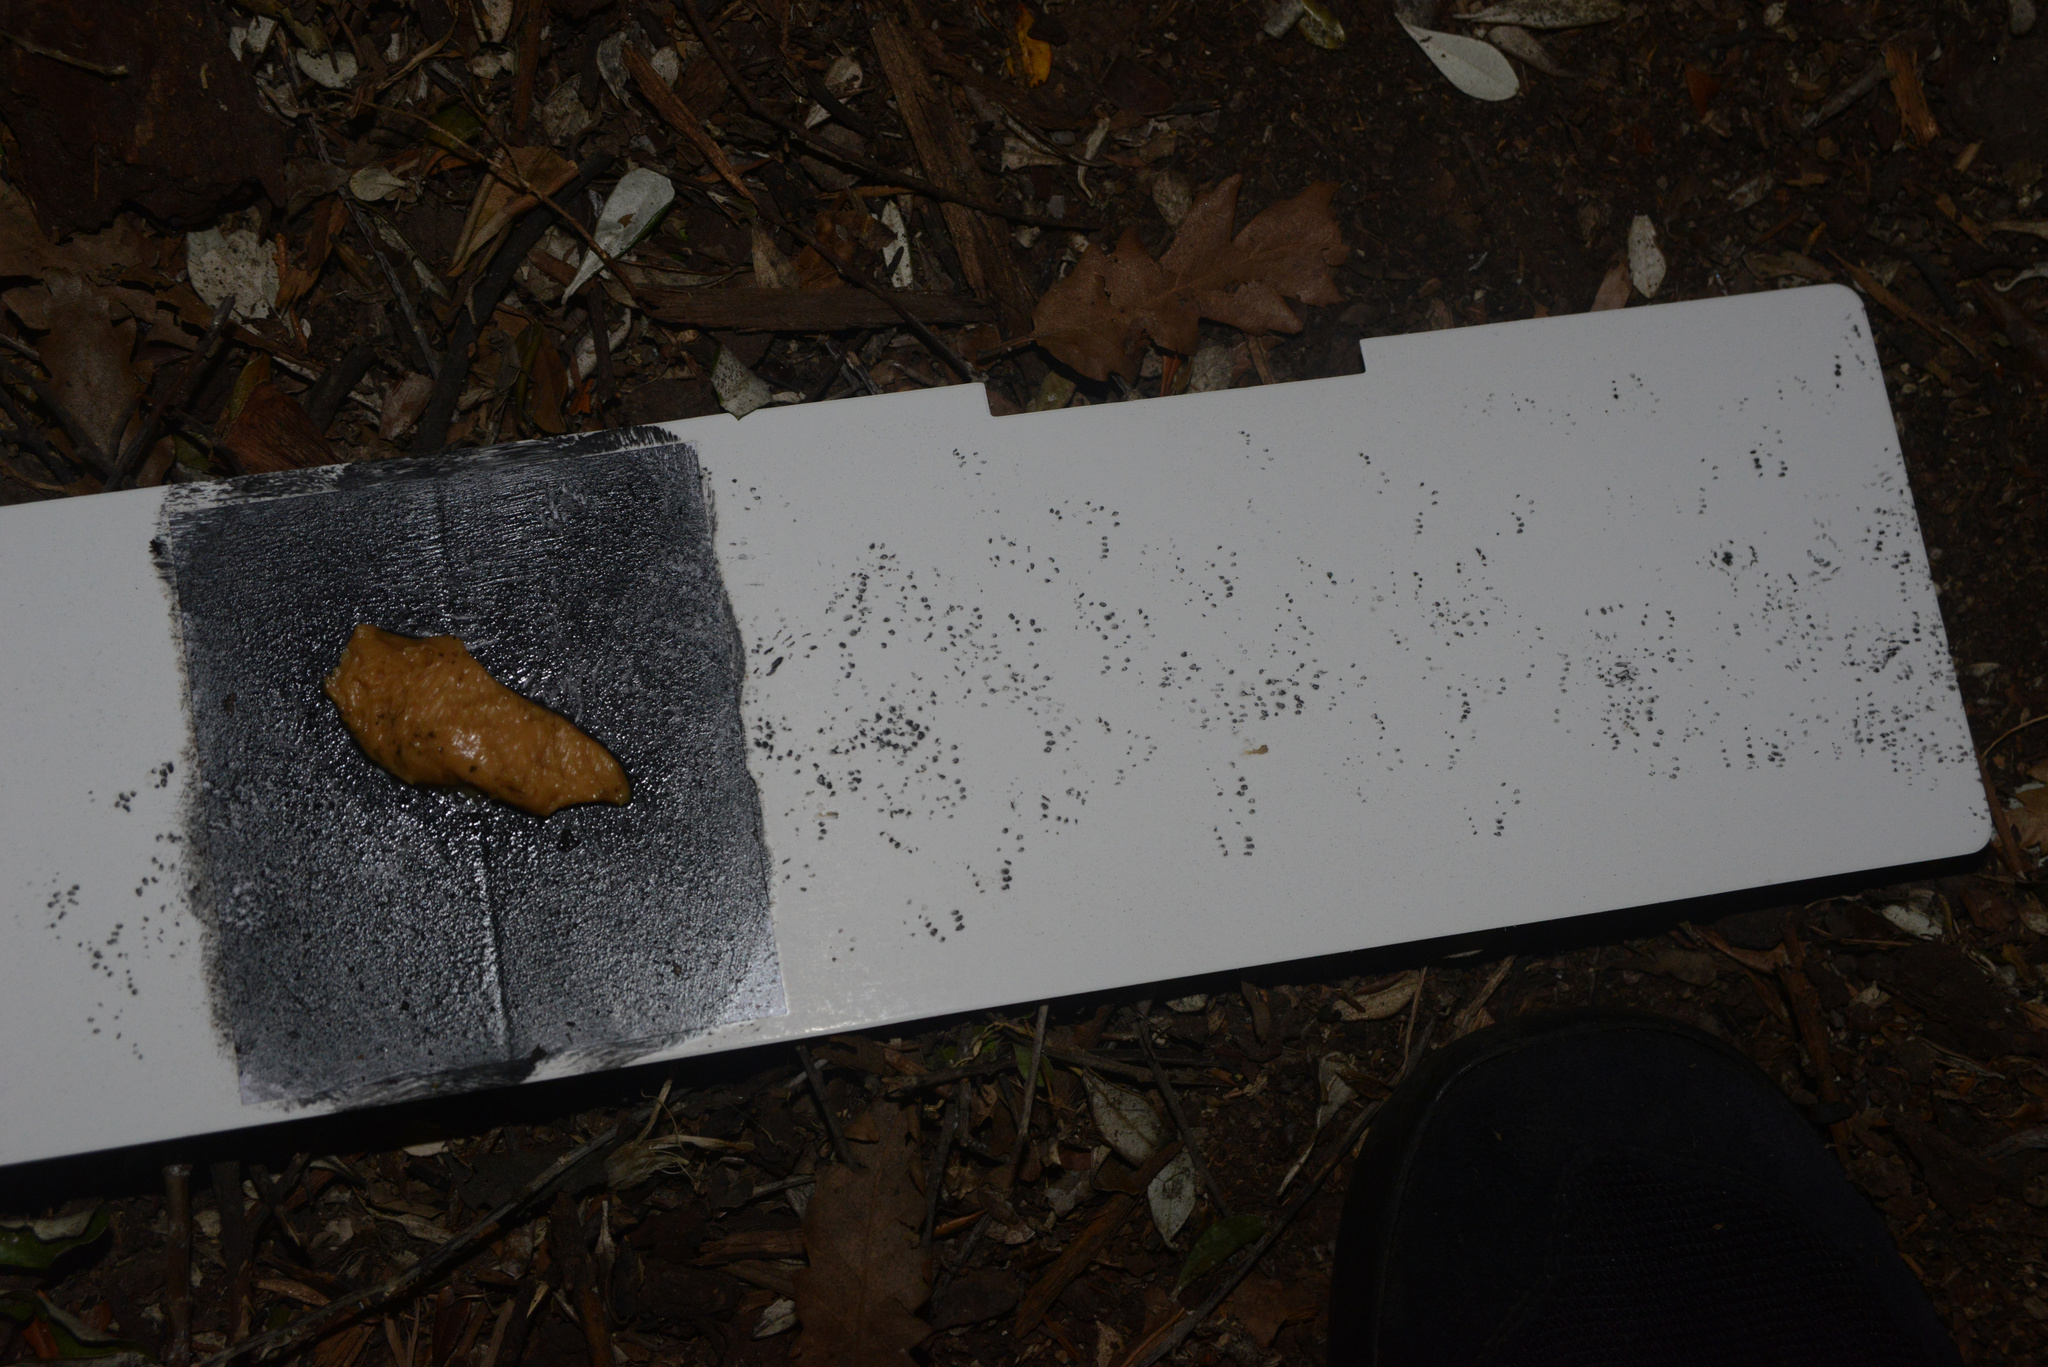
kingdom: Animalia
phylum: Chordata
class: Mammalia
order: Rodentia
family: Muridae
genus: Mus
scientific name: Mus musculus
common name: House mouse
